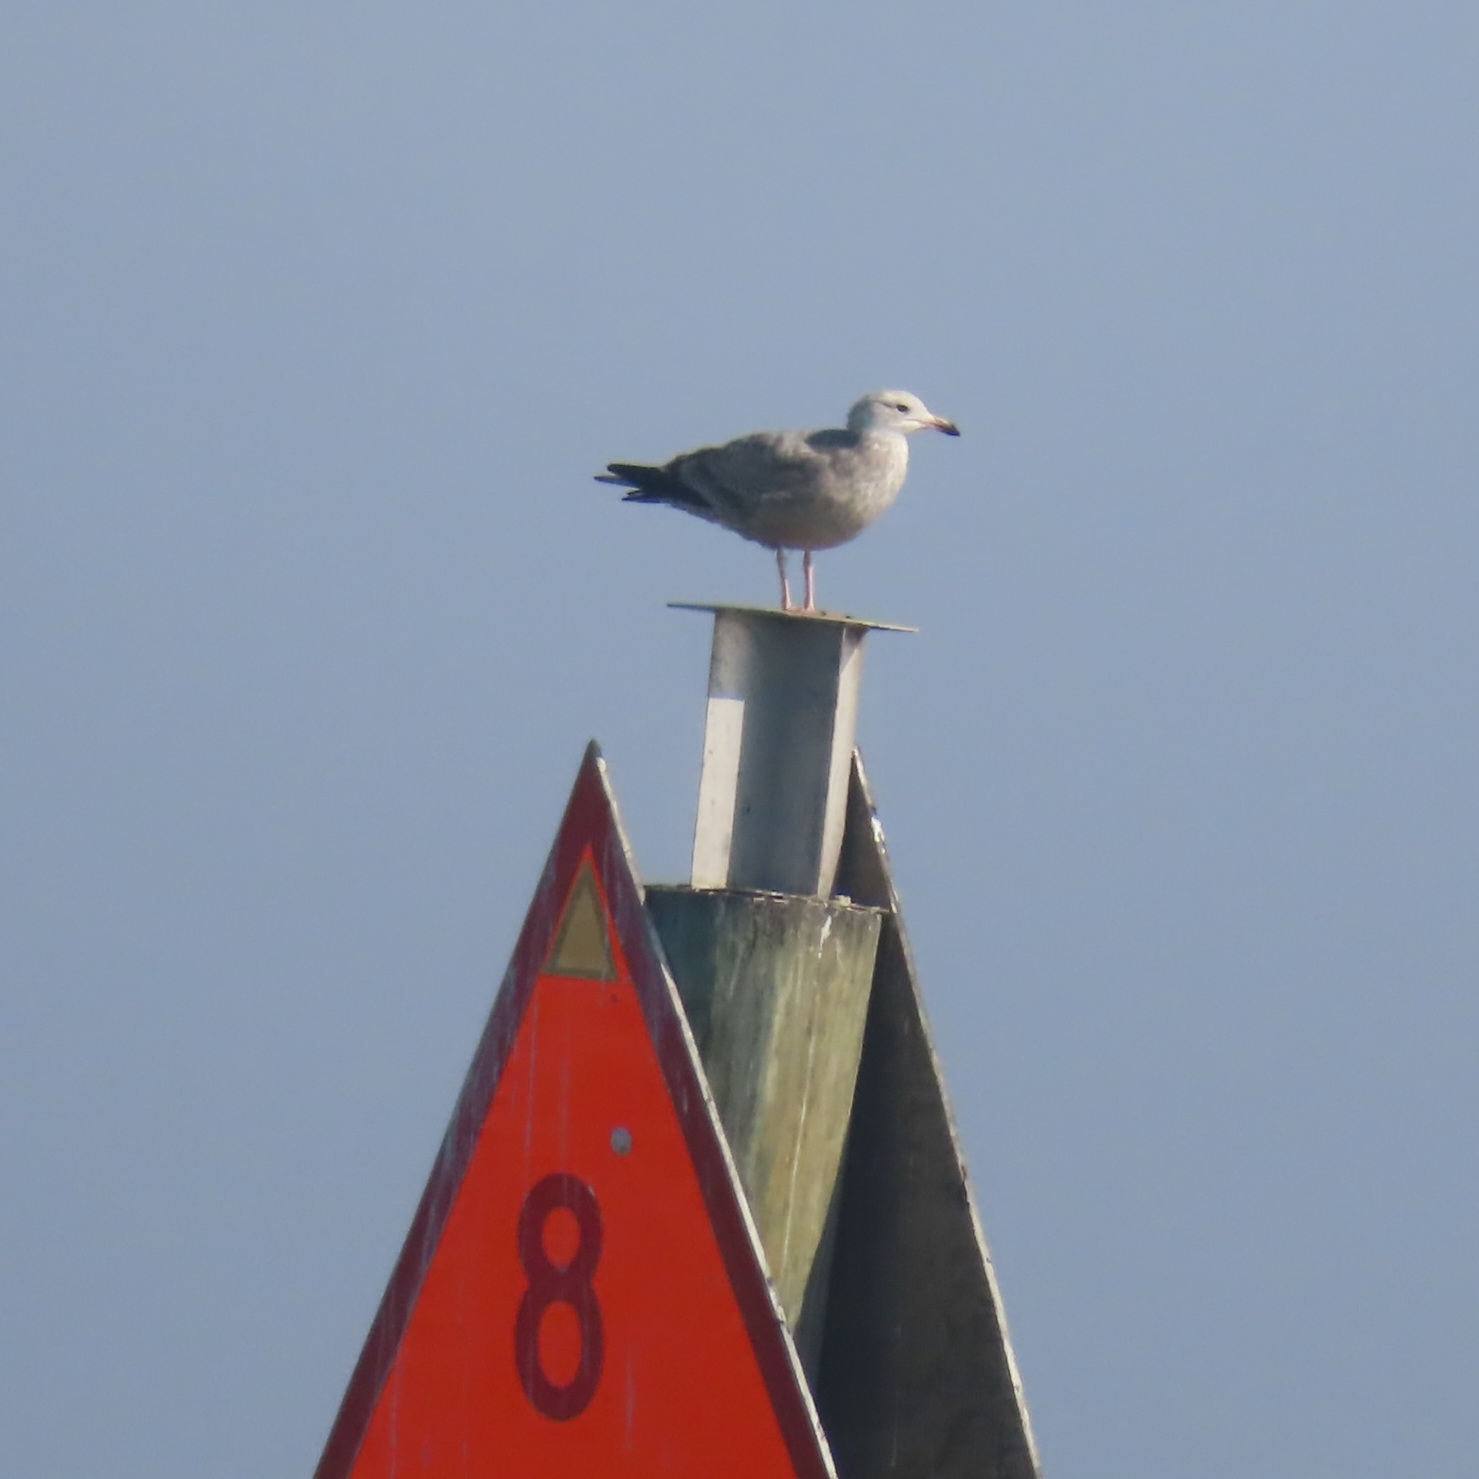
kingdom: Animalia
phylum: Chordata
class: Aves
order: Charadriiformes
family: Laridae
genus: Larus
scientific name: Larus argentatus
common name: Herring gull
